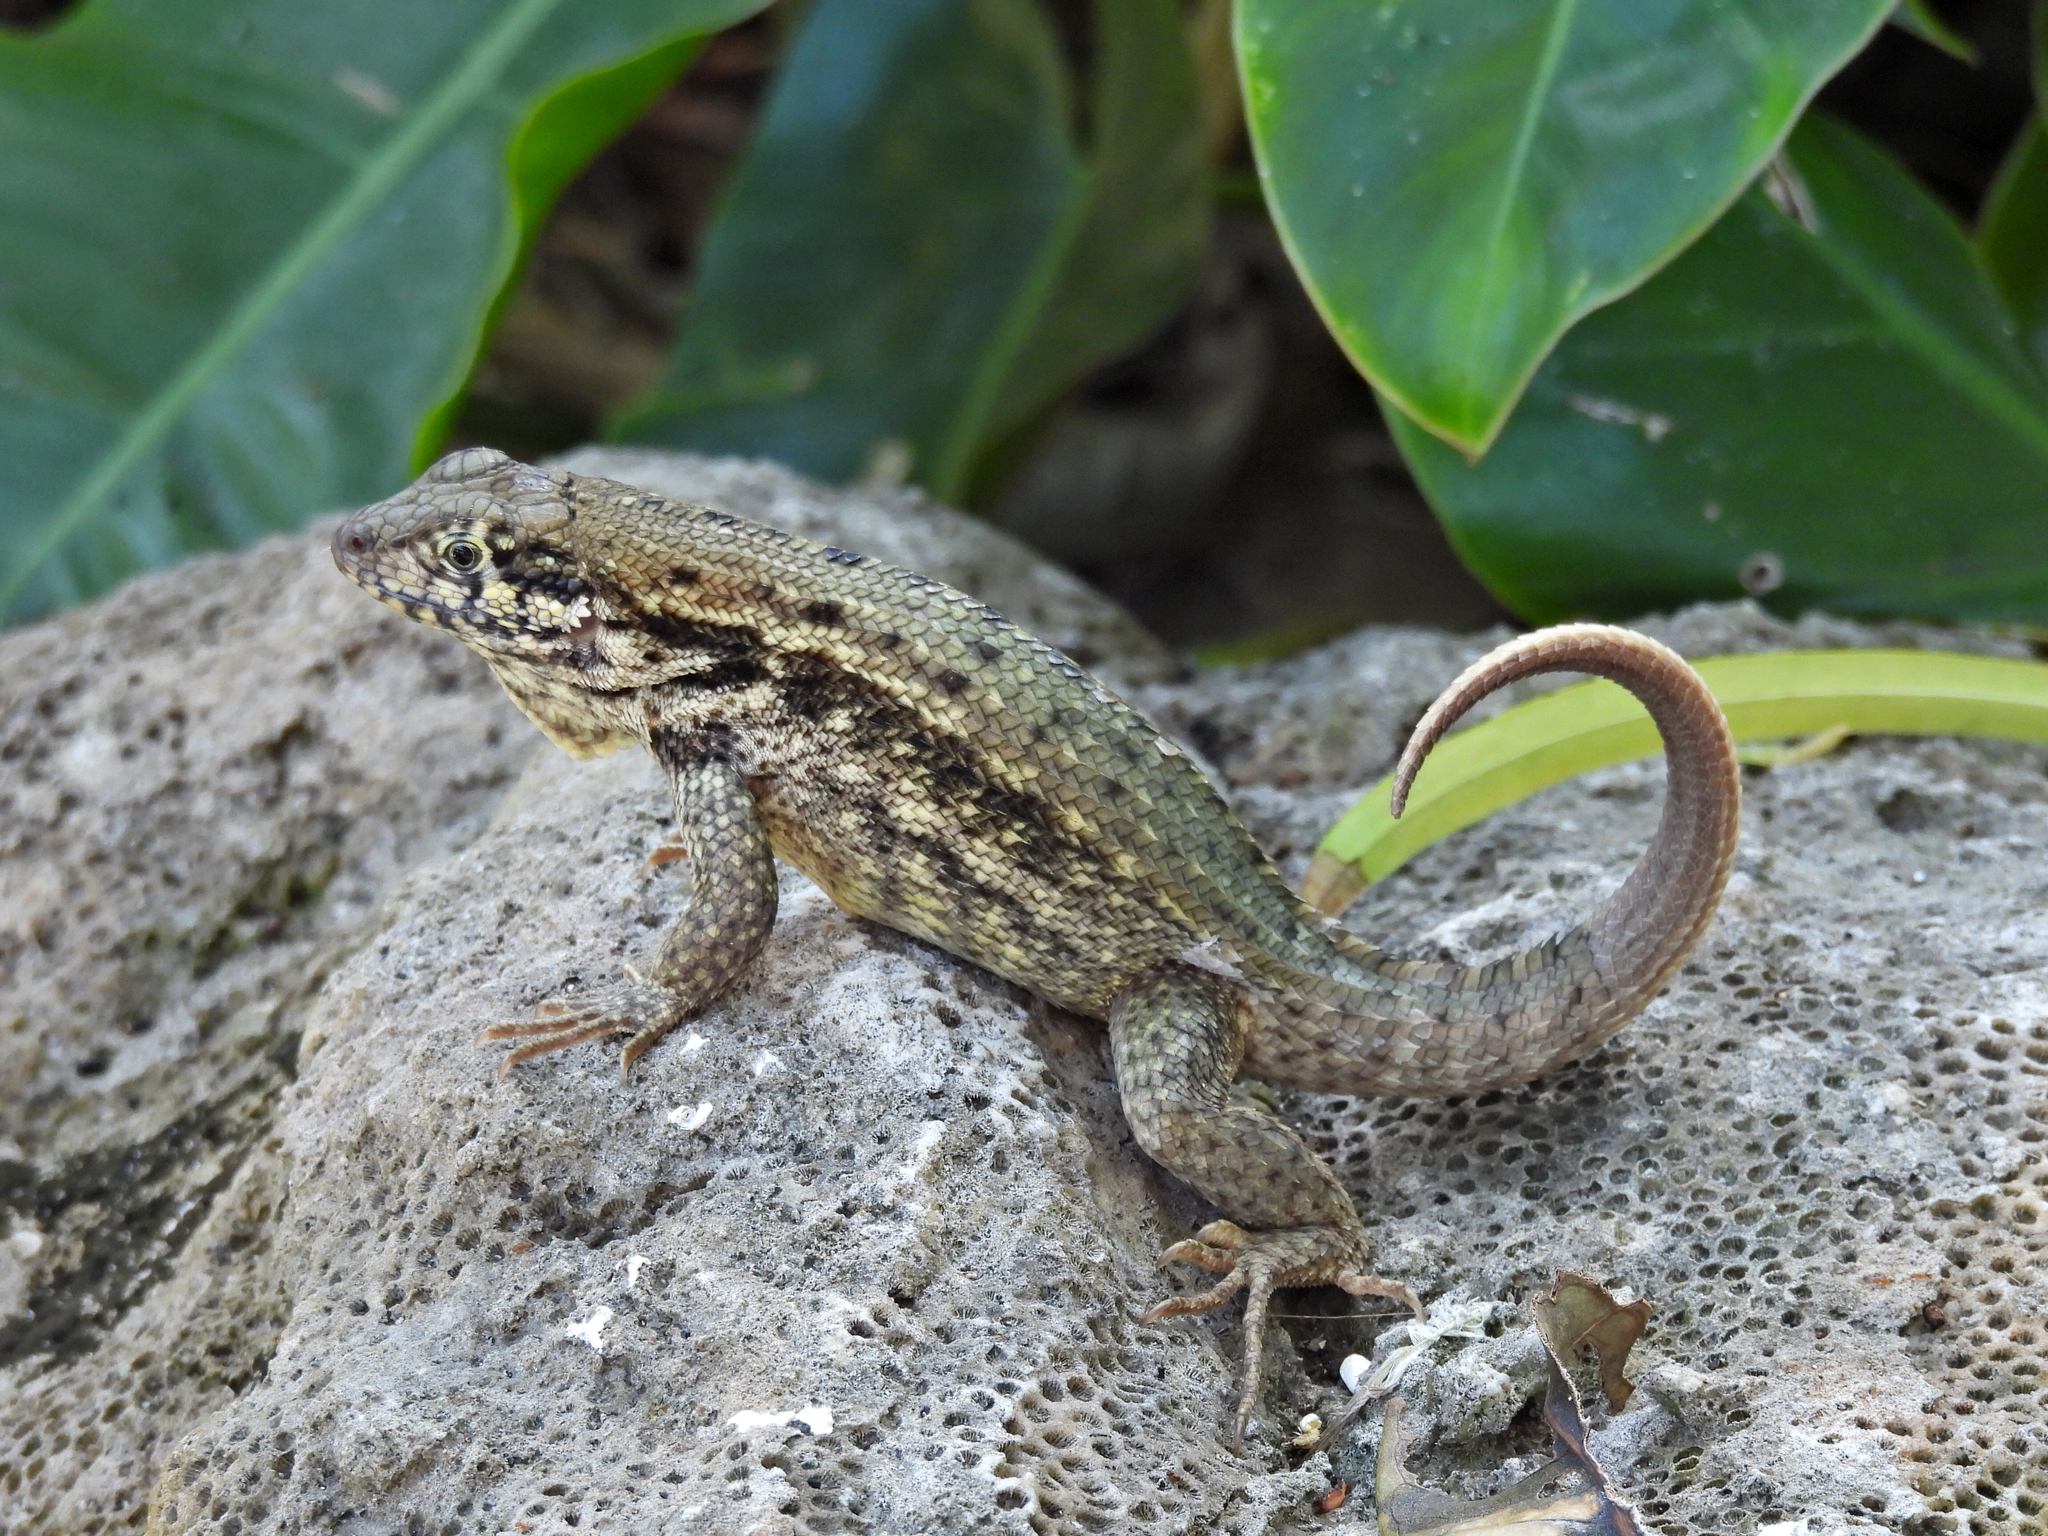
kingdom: Animalia
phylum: Chordata
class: Squamata
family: Leiocephalidae
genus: Leiocephalus
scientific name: Leiocephalus carinatus
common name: Northern curly-tailed lizard
